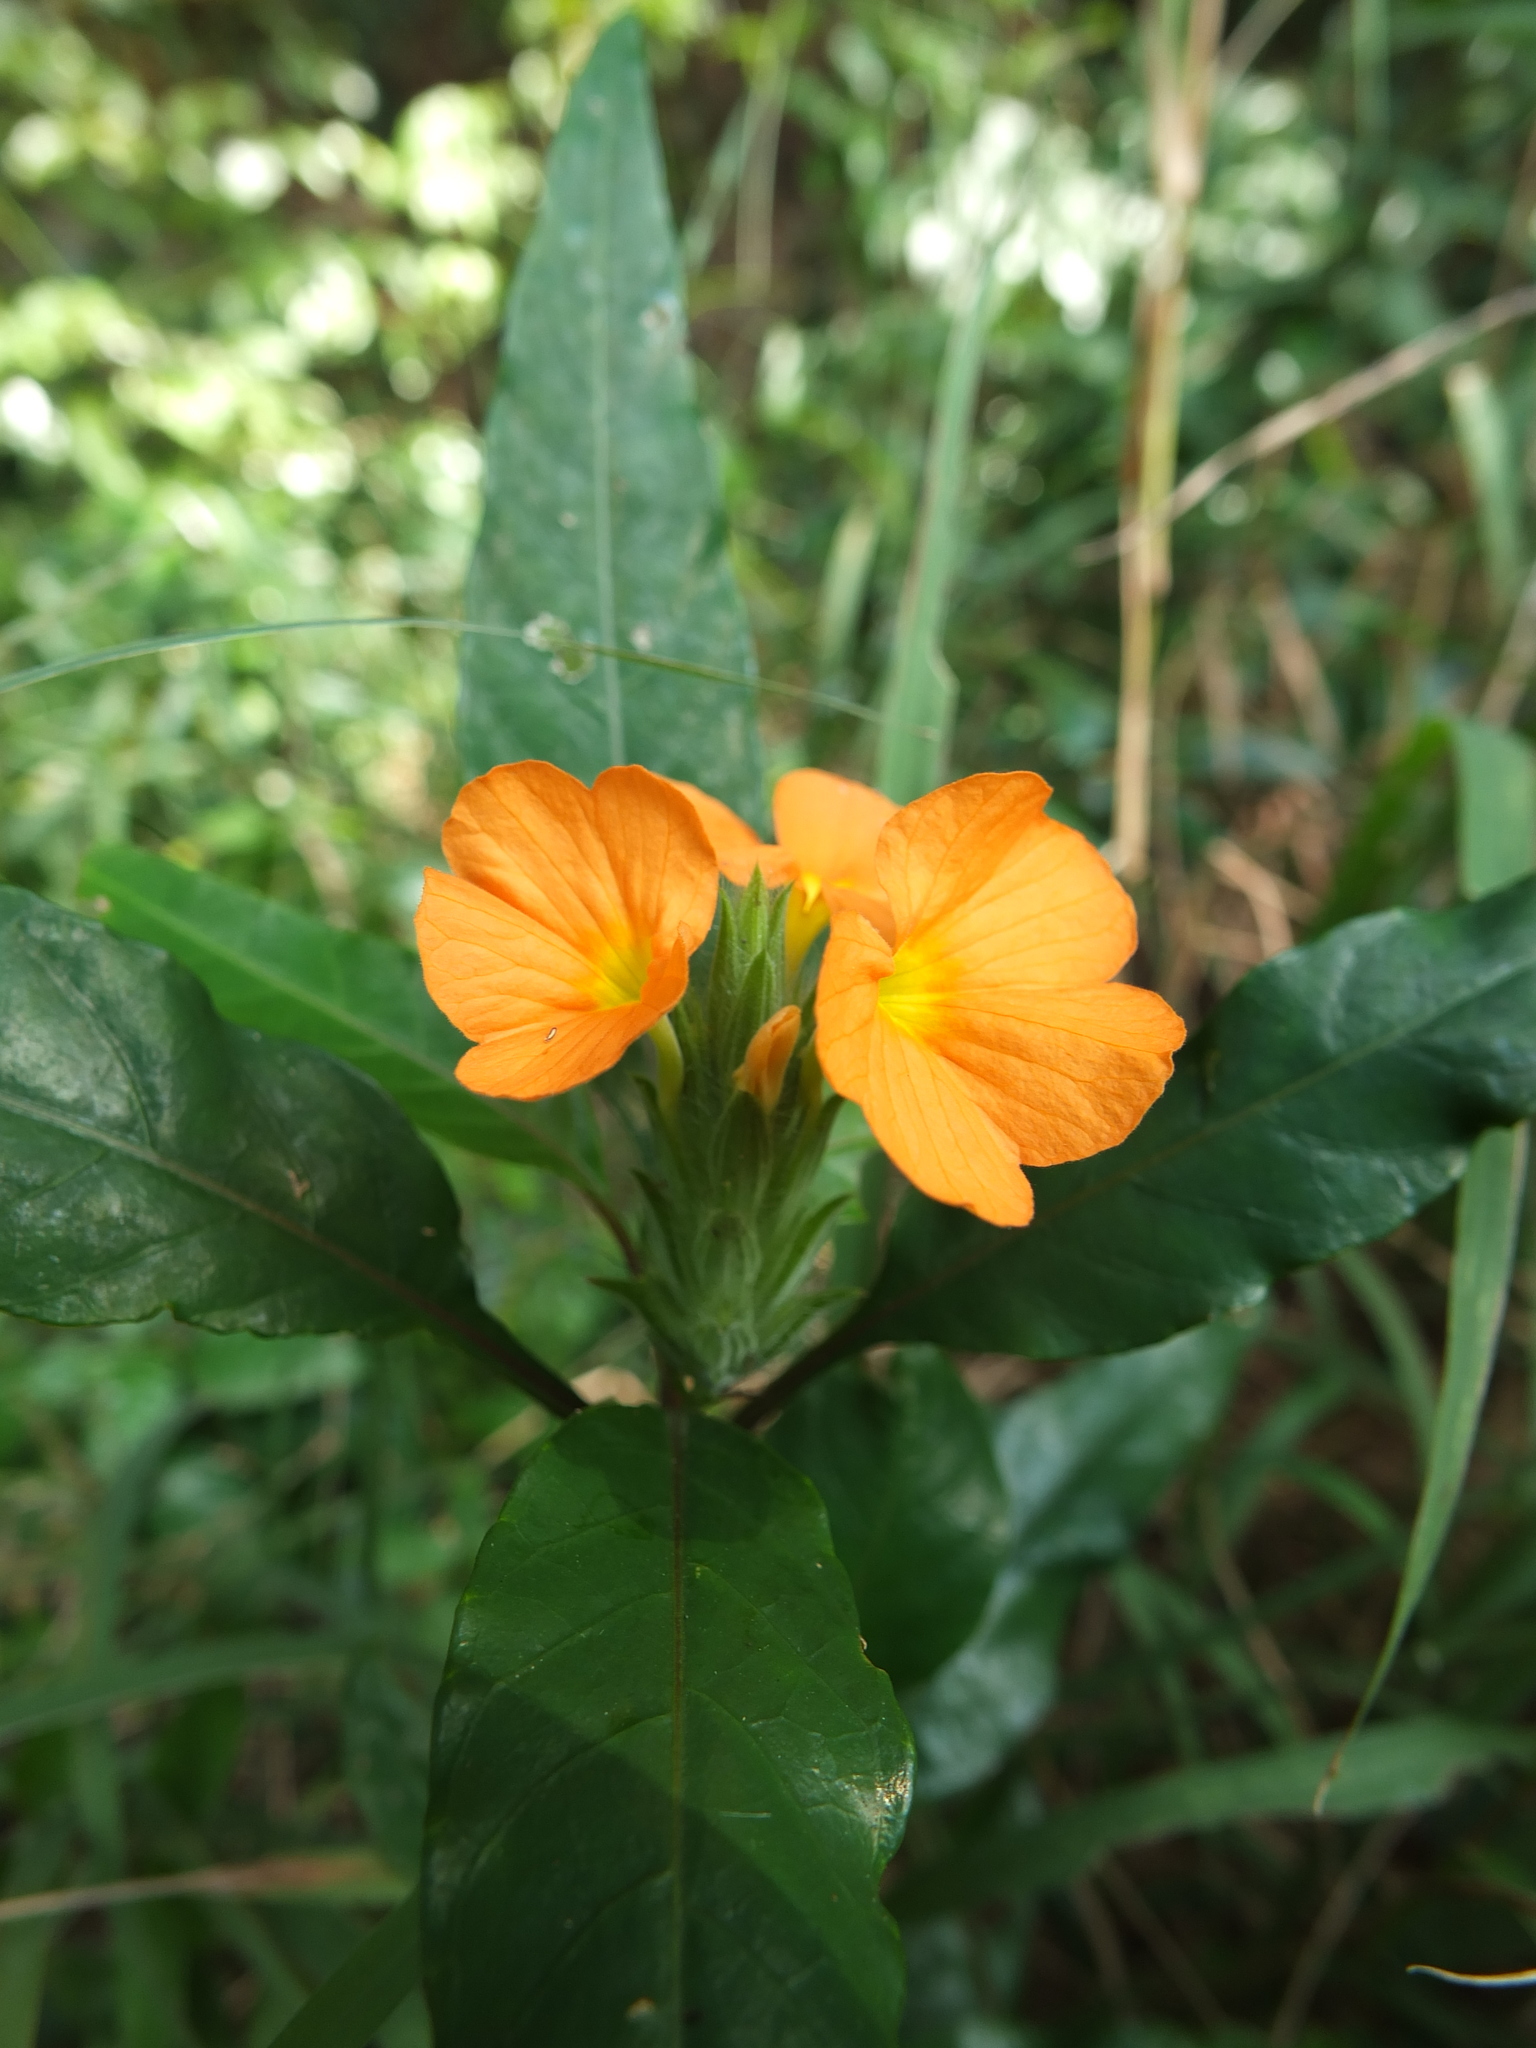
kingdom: Plantae
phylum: Tracheophyta
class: Magnoliopsida
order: Lamiales
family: Acanthaceae
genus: Crossandra
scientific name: Crossandra infundibuliformis
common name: Firecracker-flower
